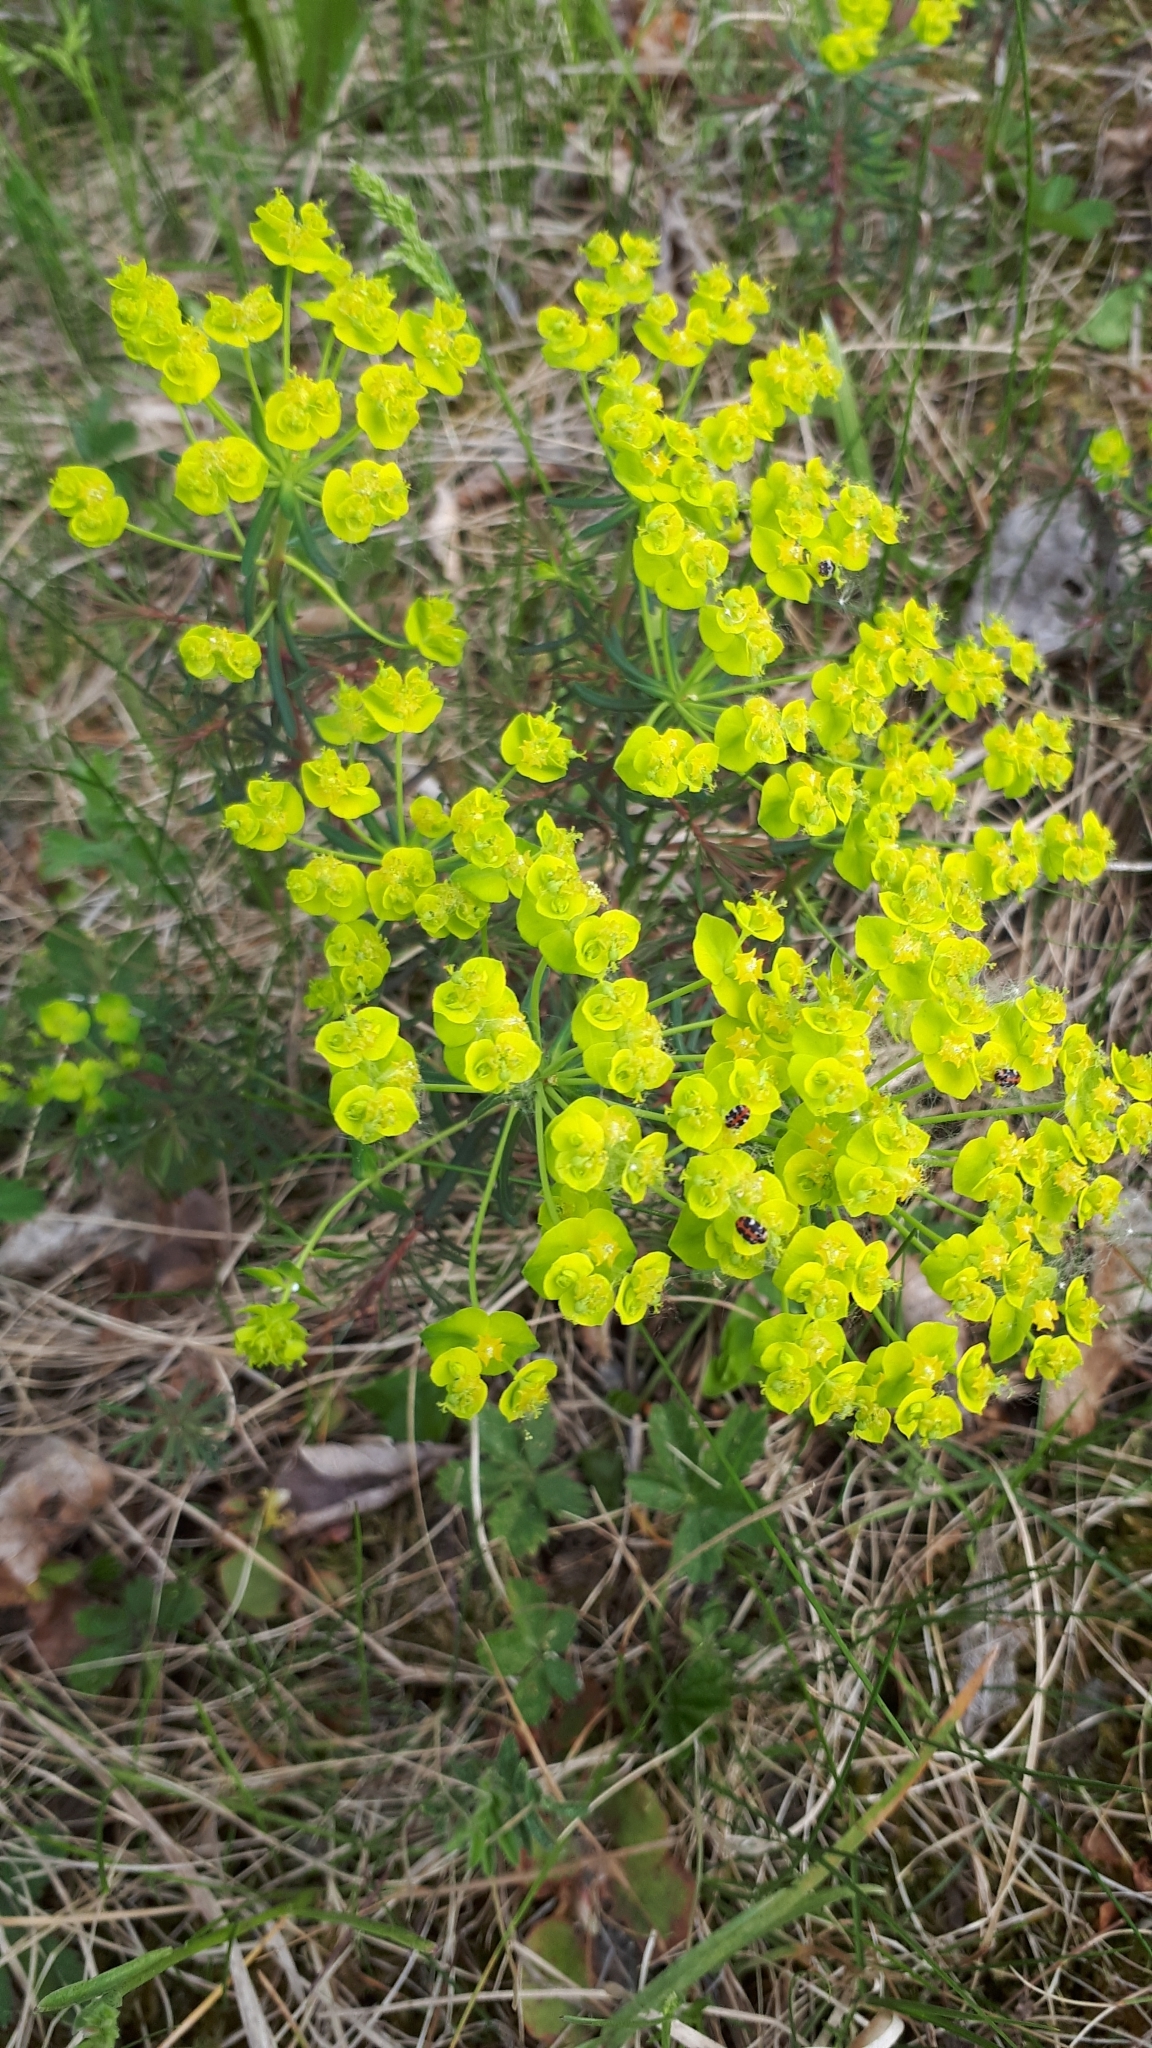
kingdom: Plantae
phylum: Tracheophyta
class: Magnoliopsida
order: Malpighiales
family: Euphorbiaceae
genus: Euphorbia
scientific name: Euphorbia cyparissias
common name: Cypress spurge
